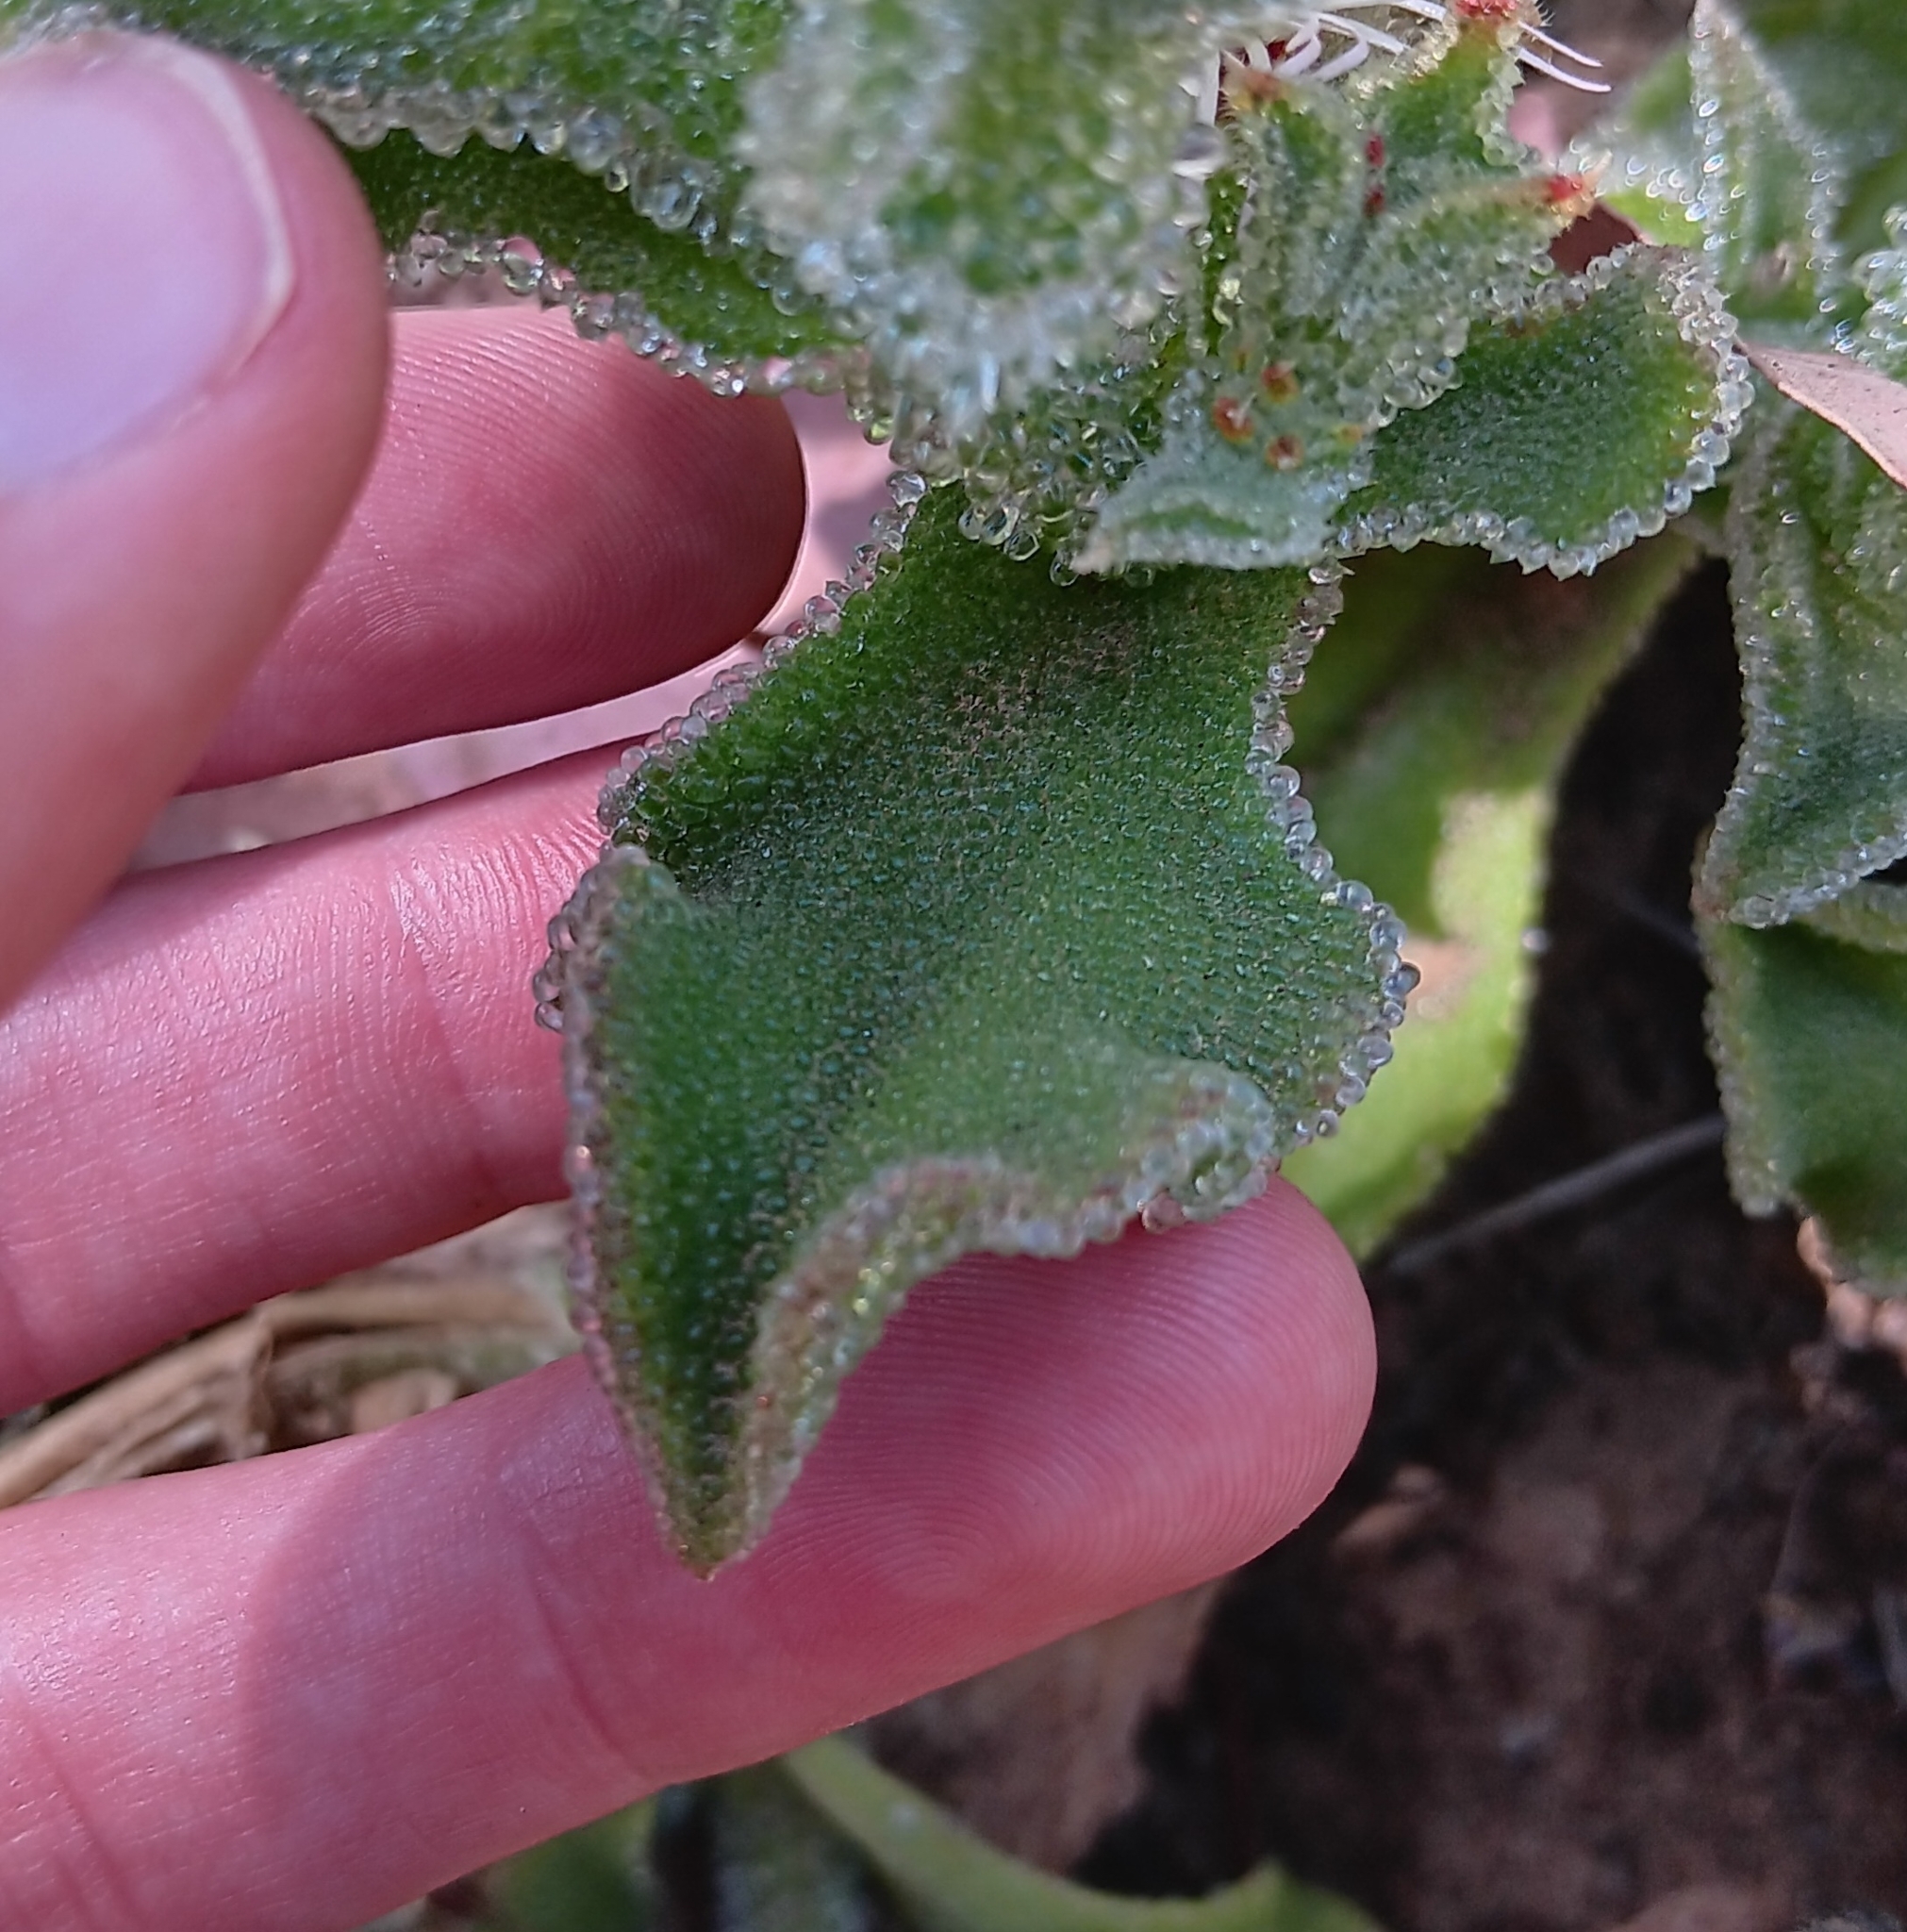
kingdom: Plantae
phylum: Tracheophyta
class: Magnoliopsida
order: Caryophyllales
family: Aizoaceae
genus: Mesembryanthemum
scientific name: Mesembryanthemum crystallinum
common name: Common iceplant
